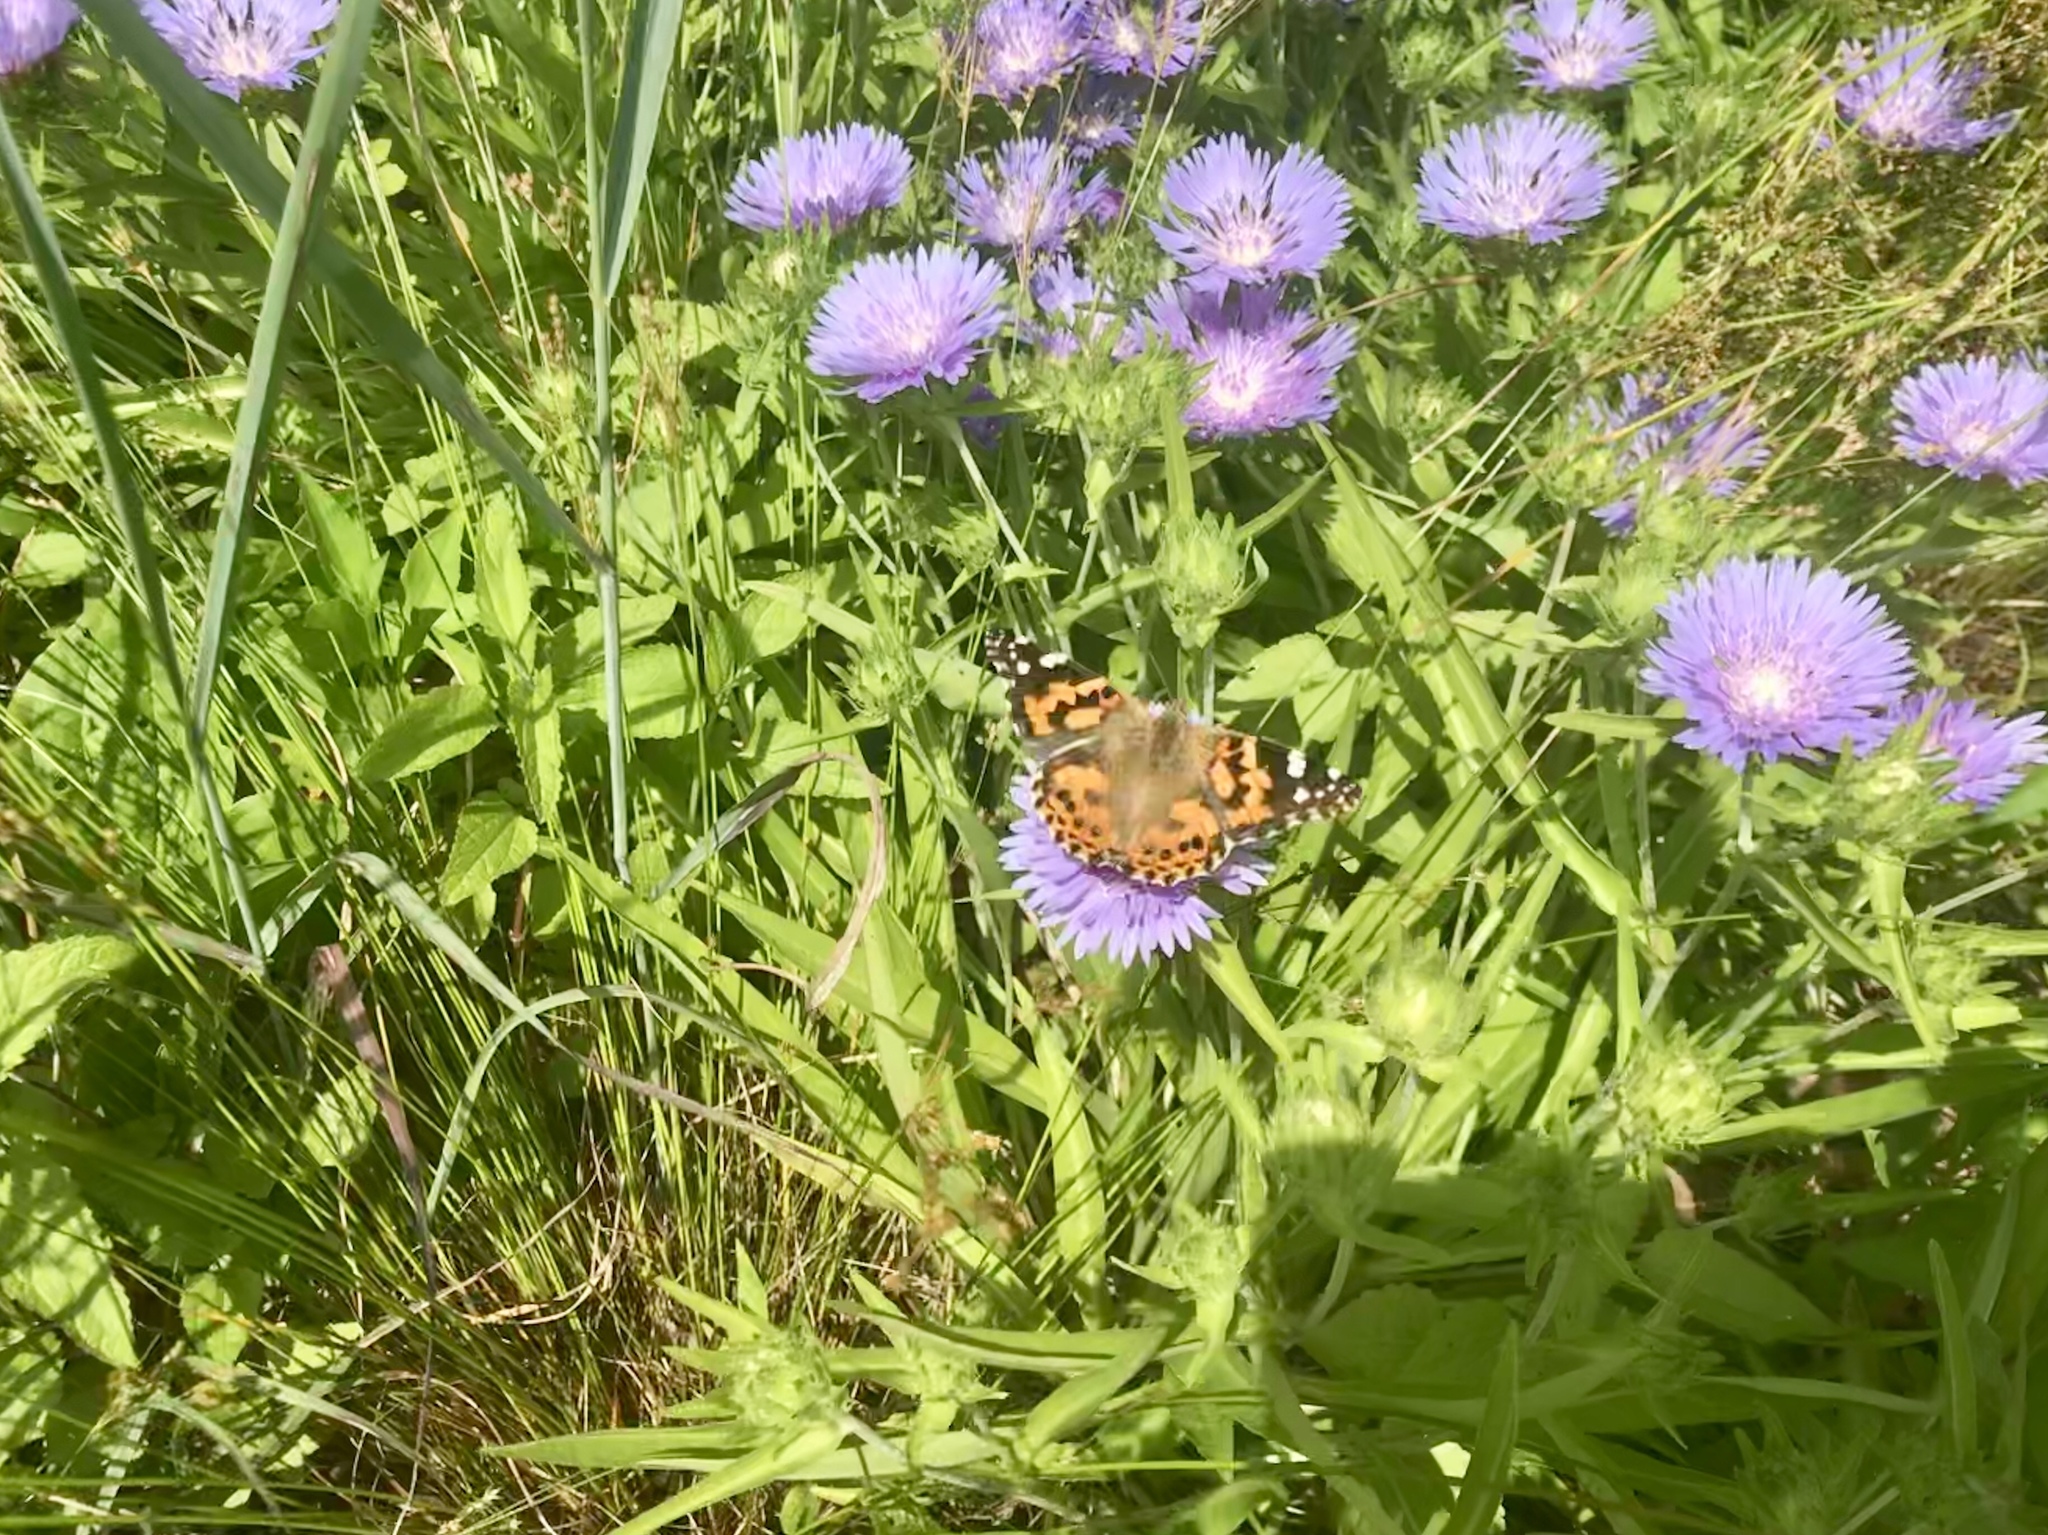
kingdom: Animalia
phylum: Arthropoda
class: Insecta
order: Lepidoptera
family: Nymphalidae
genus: Vanessa
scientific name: Vanessa cardui
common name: Painted lady
